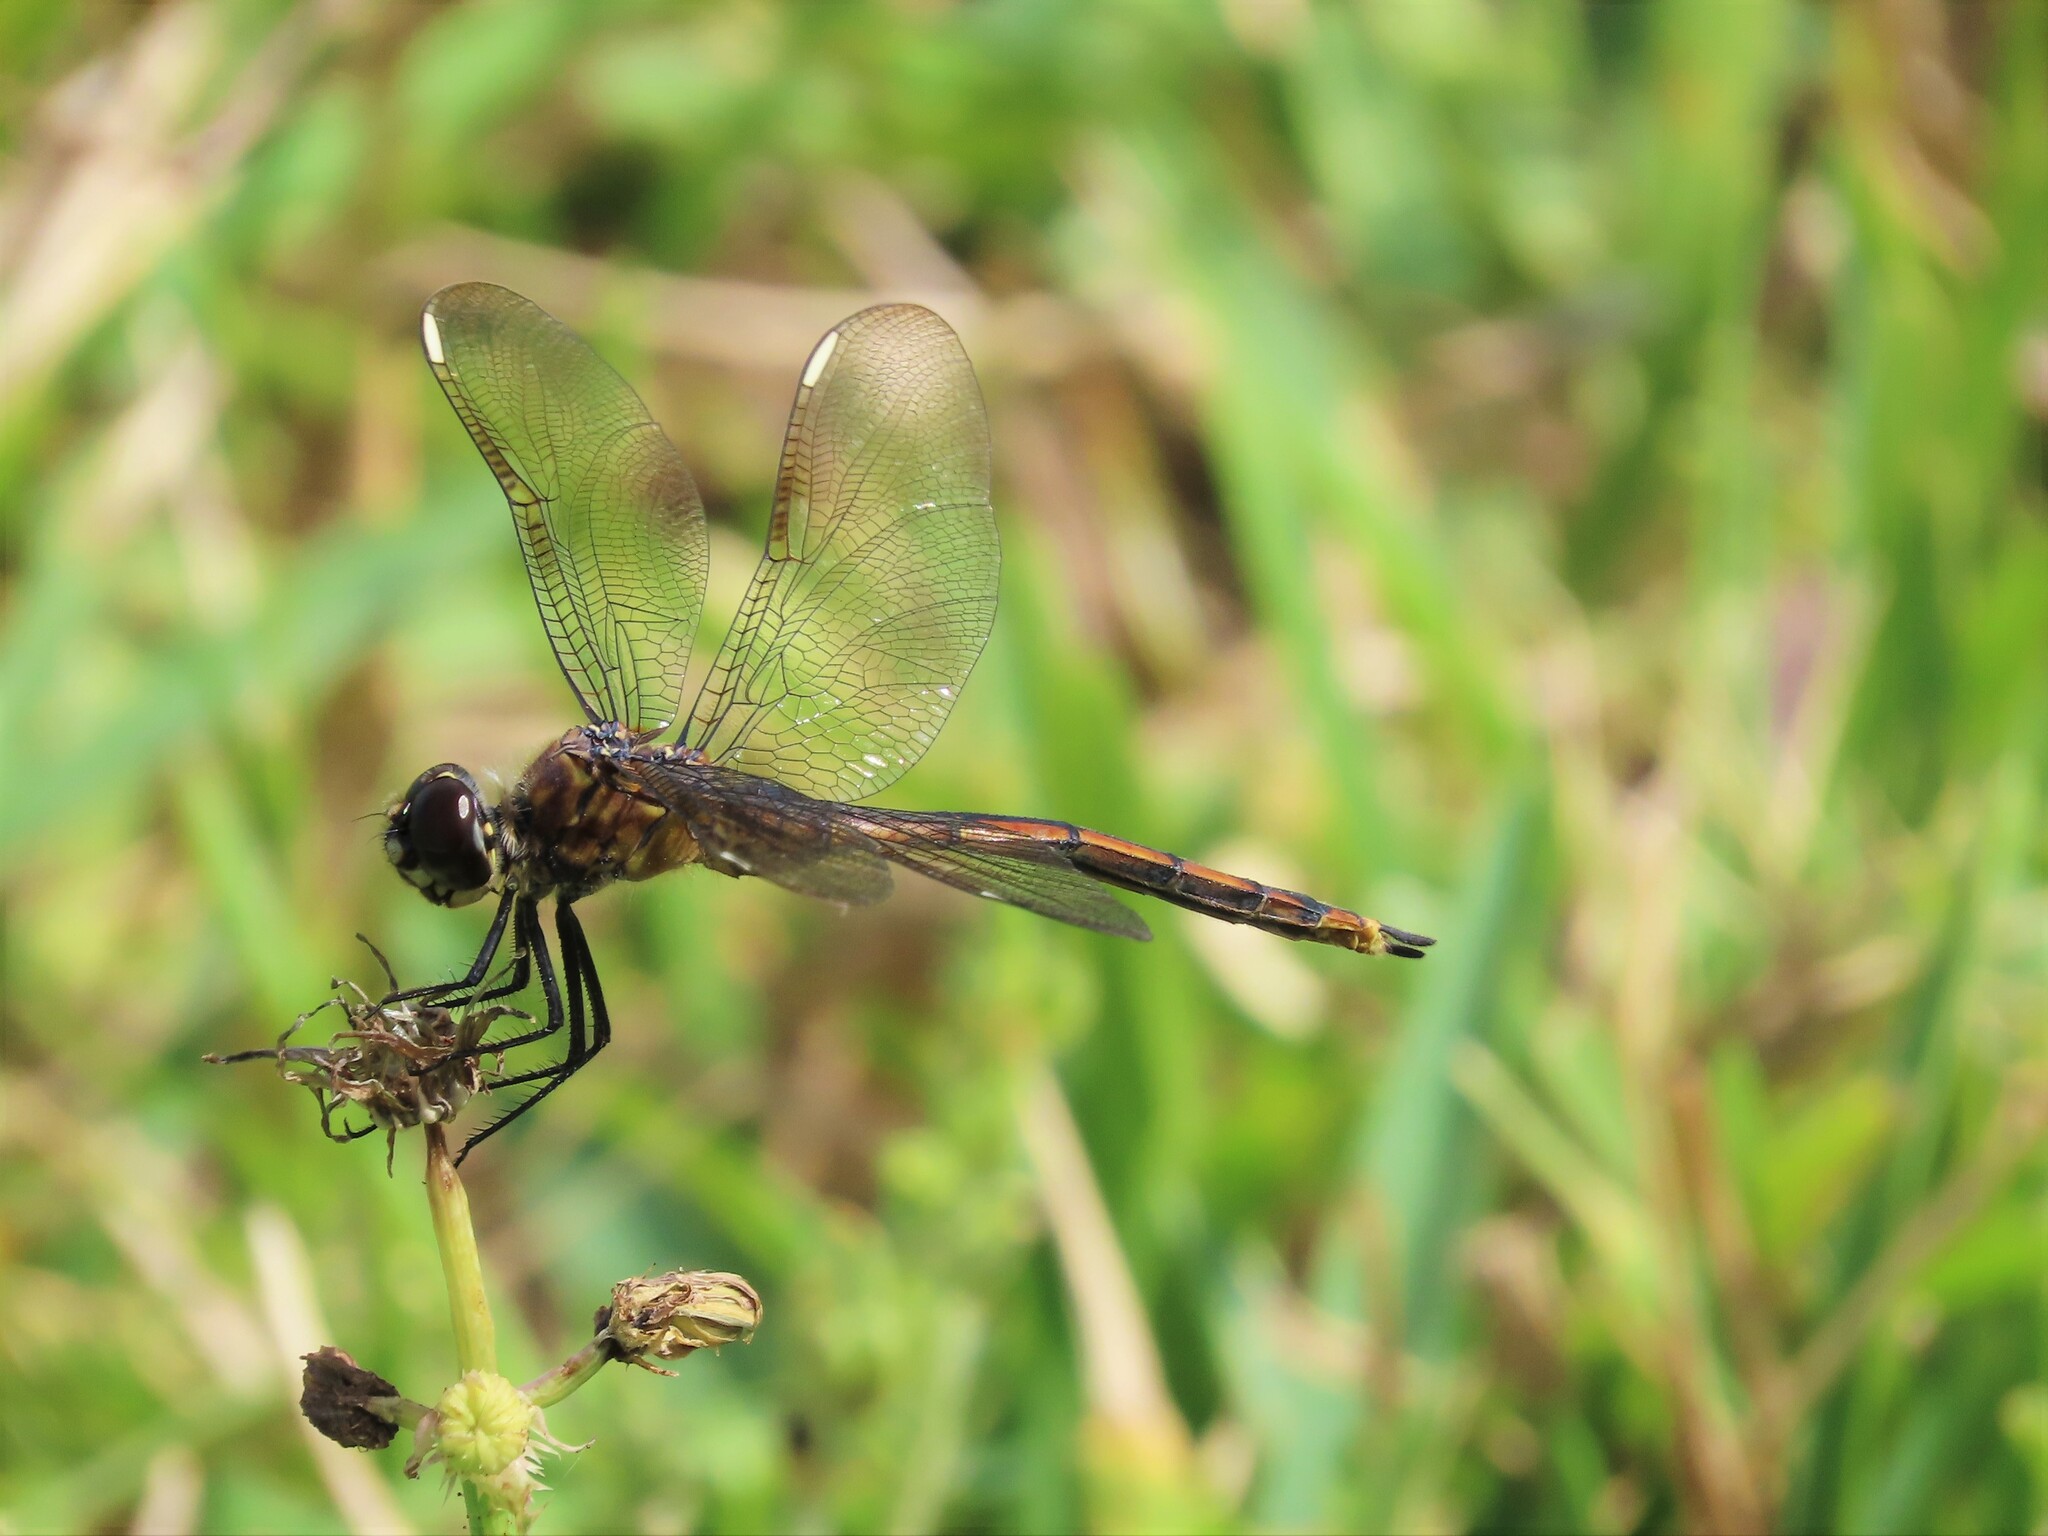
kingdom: Animalia
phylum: Arthropoda
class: Insecta
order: Odonata
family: Libellulidae
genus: Brachymesia
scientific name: Brachymesia gravida
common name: Four-spotted pennant
